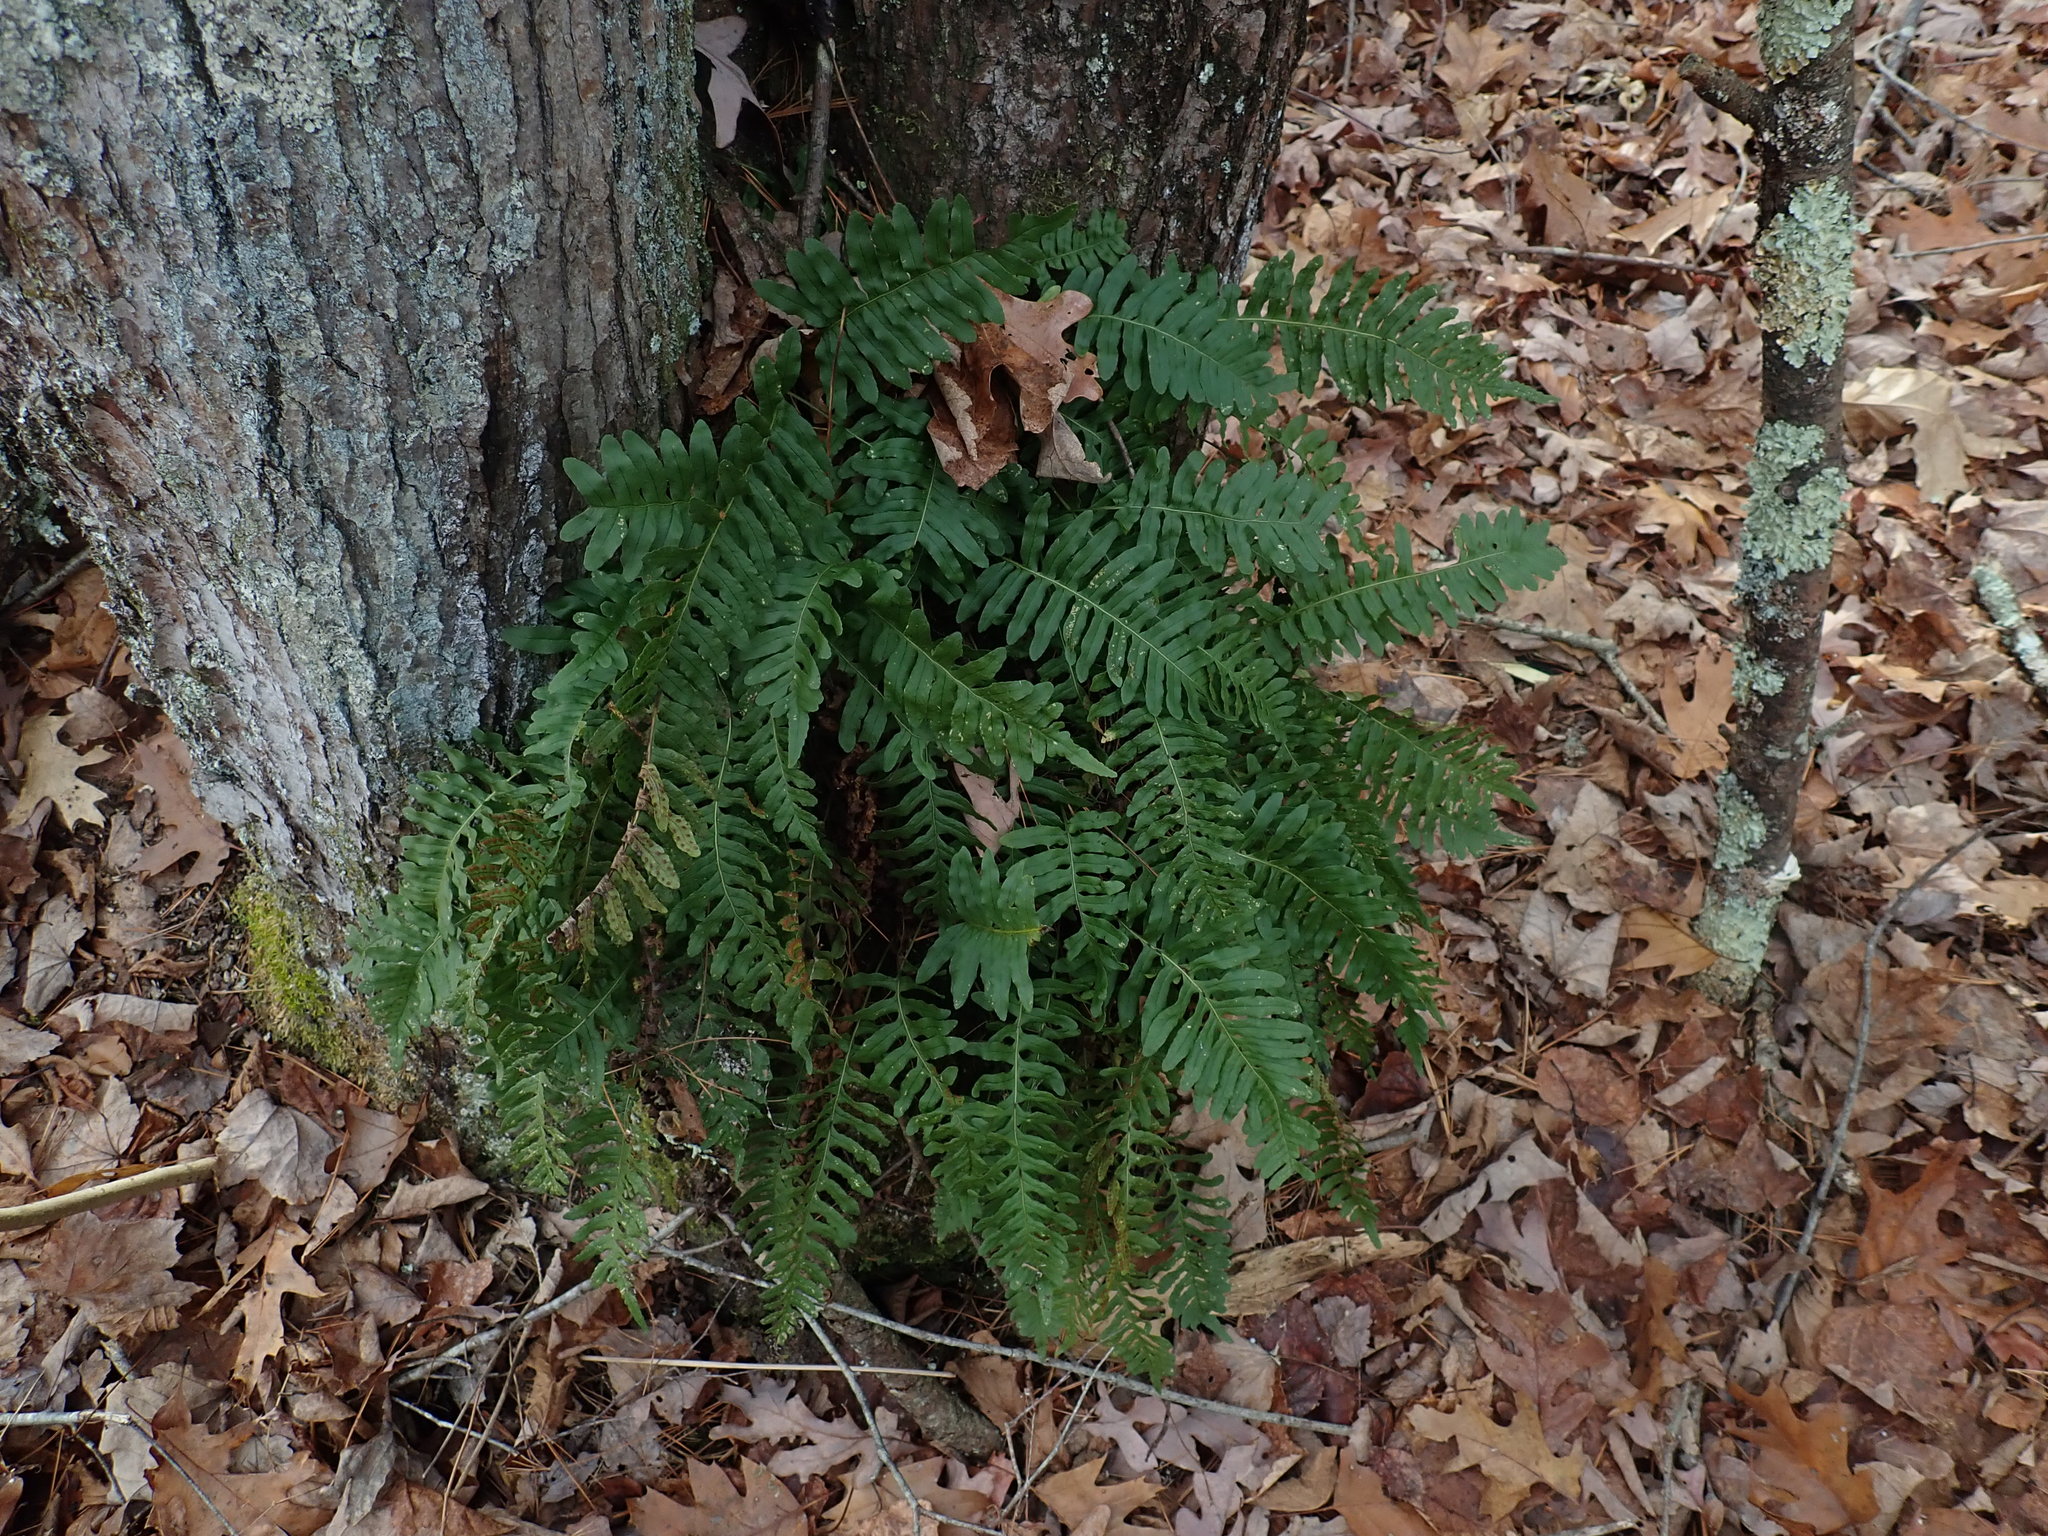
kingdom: Plantae
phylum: Tracheophyta
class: Polypodiopsida
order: Polypodiales
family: Polypodiaceae
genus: Polypodium
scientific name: Polypodium
